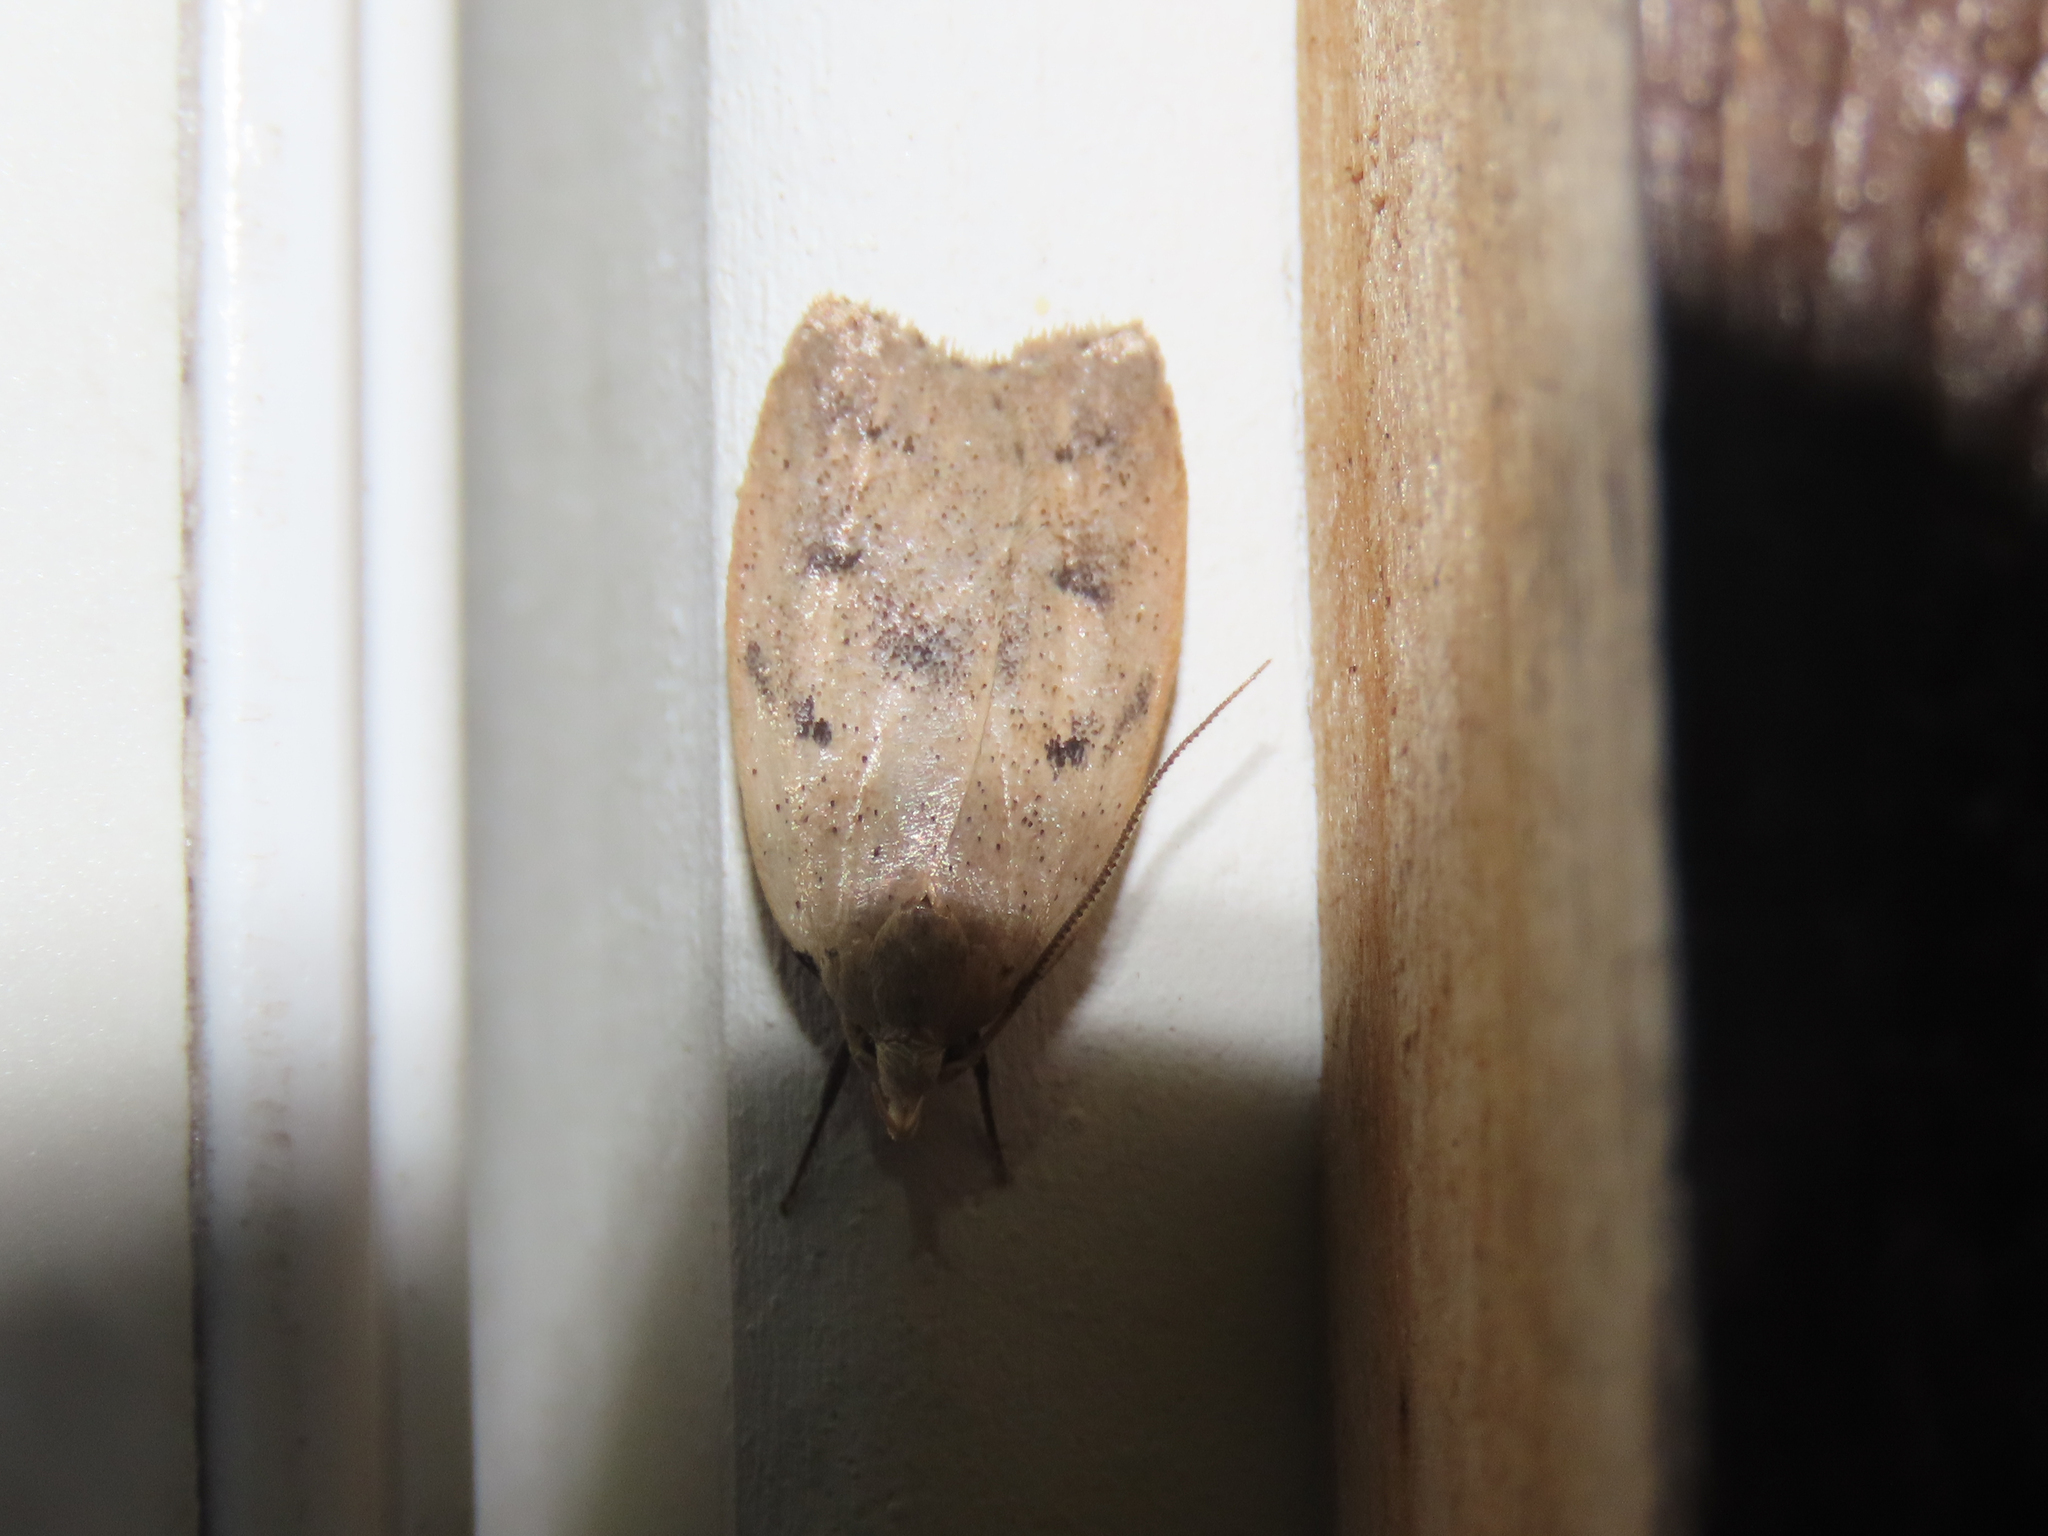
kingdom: Animalia
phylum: Arthropoda
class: Insecta
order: Lepidoptera
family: Peleopodidae
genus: Machimia
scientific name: Machimia tentoriferella
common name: Gold-striped leaftier moth
